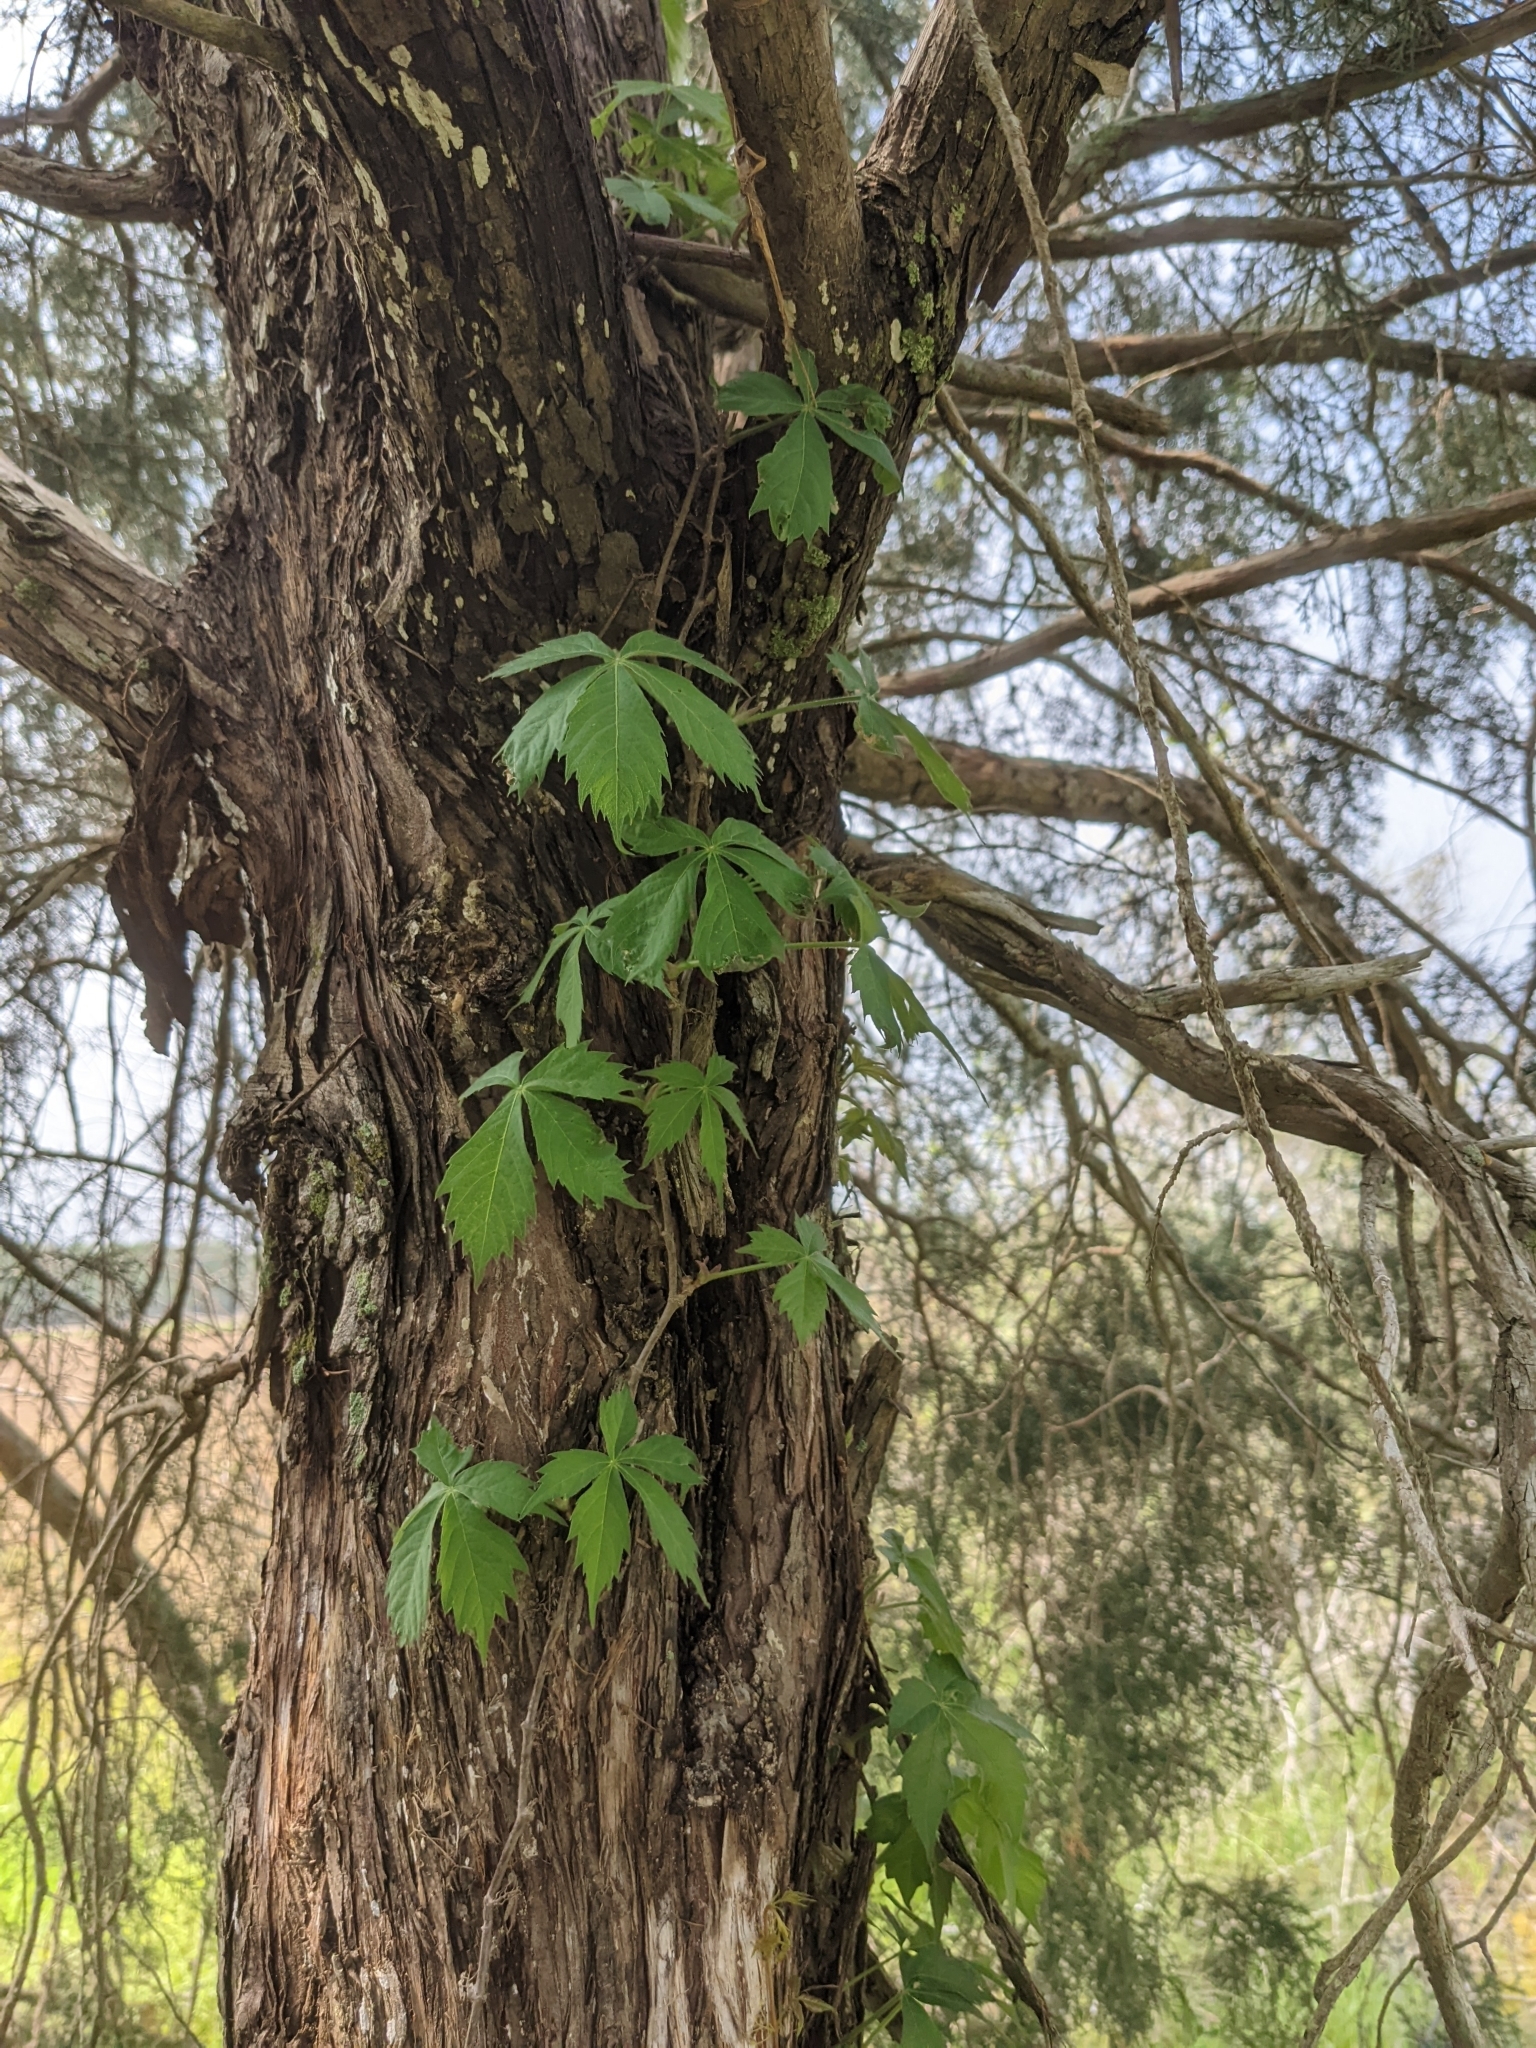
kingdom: Plantae
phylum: Tracheophyta
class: Magnoliopsida
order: Vitales
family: Vitaceae
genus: Parthenocissus
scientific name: Parthenocissus quinquefolia
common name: Virginia-creeper
